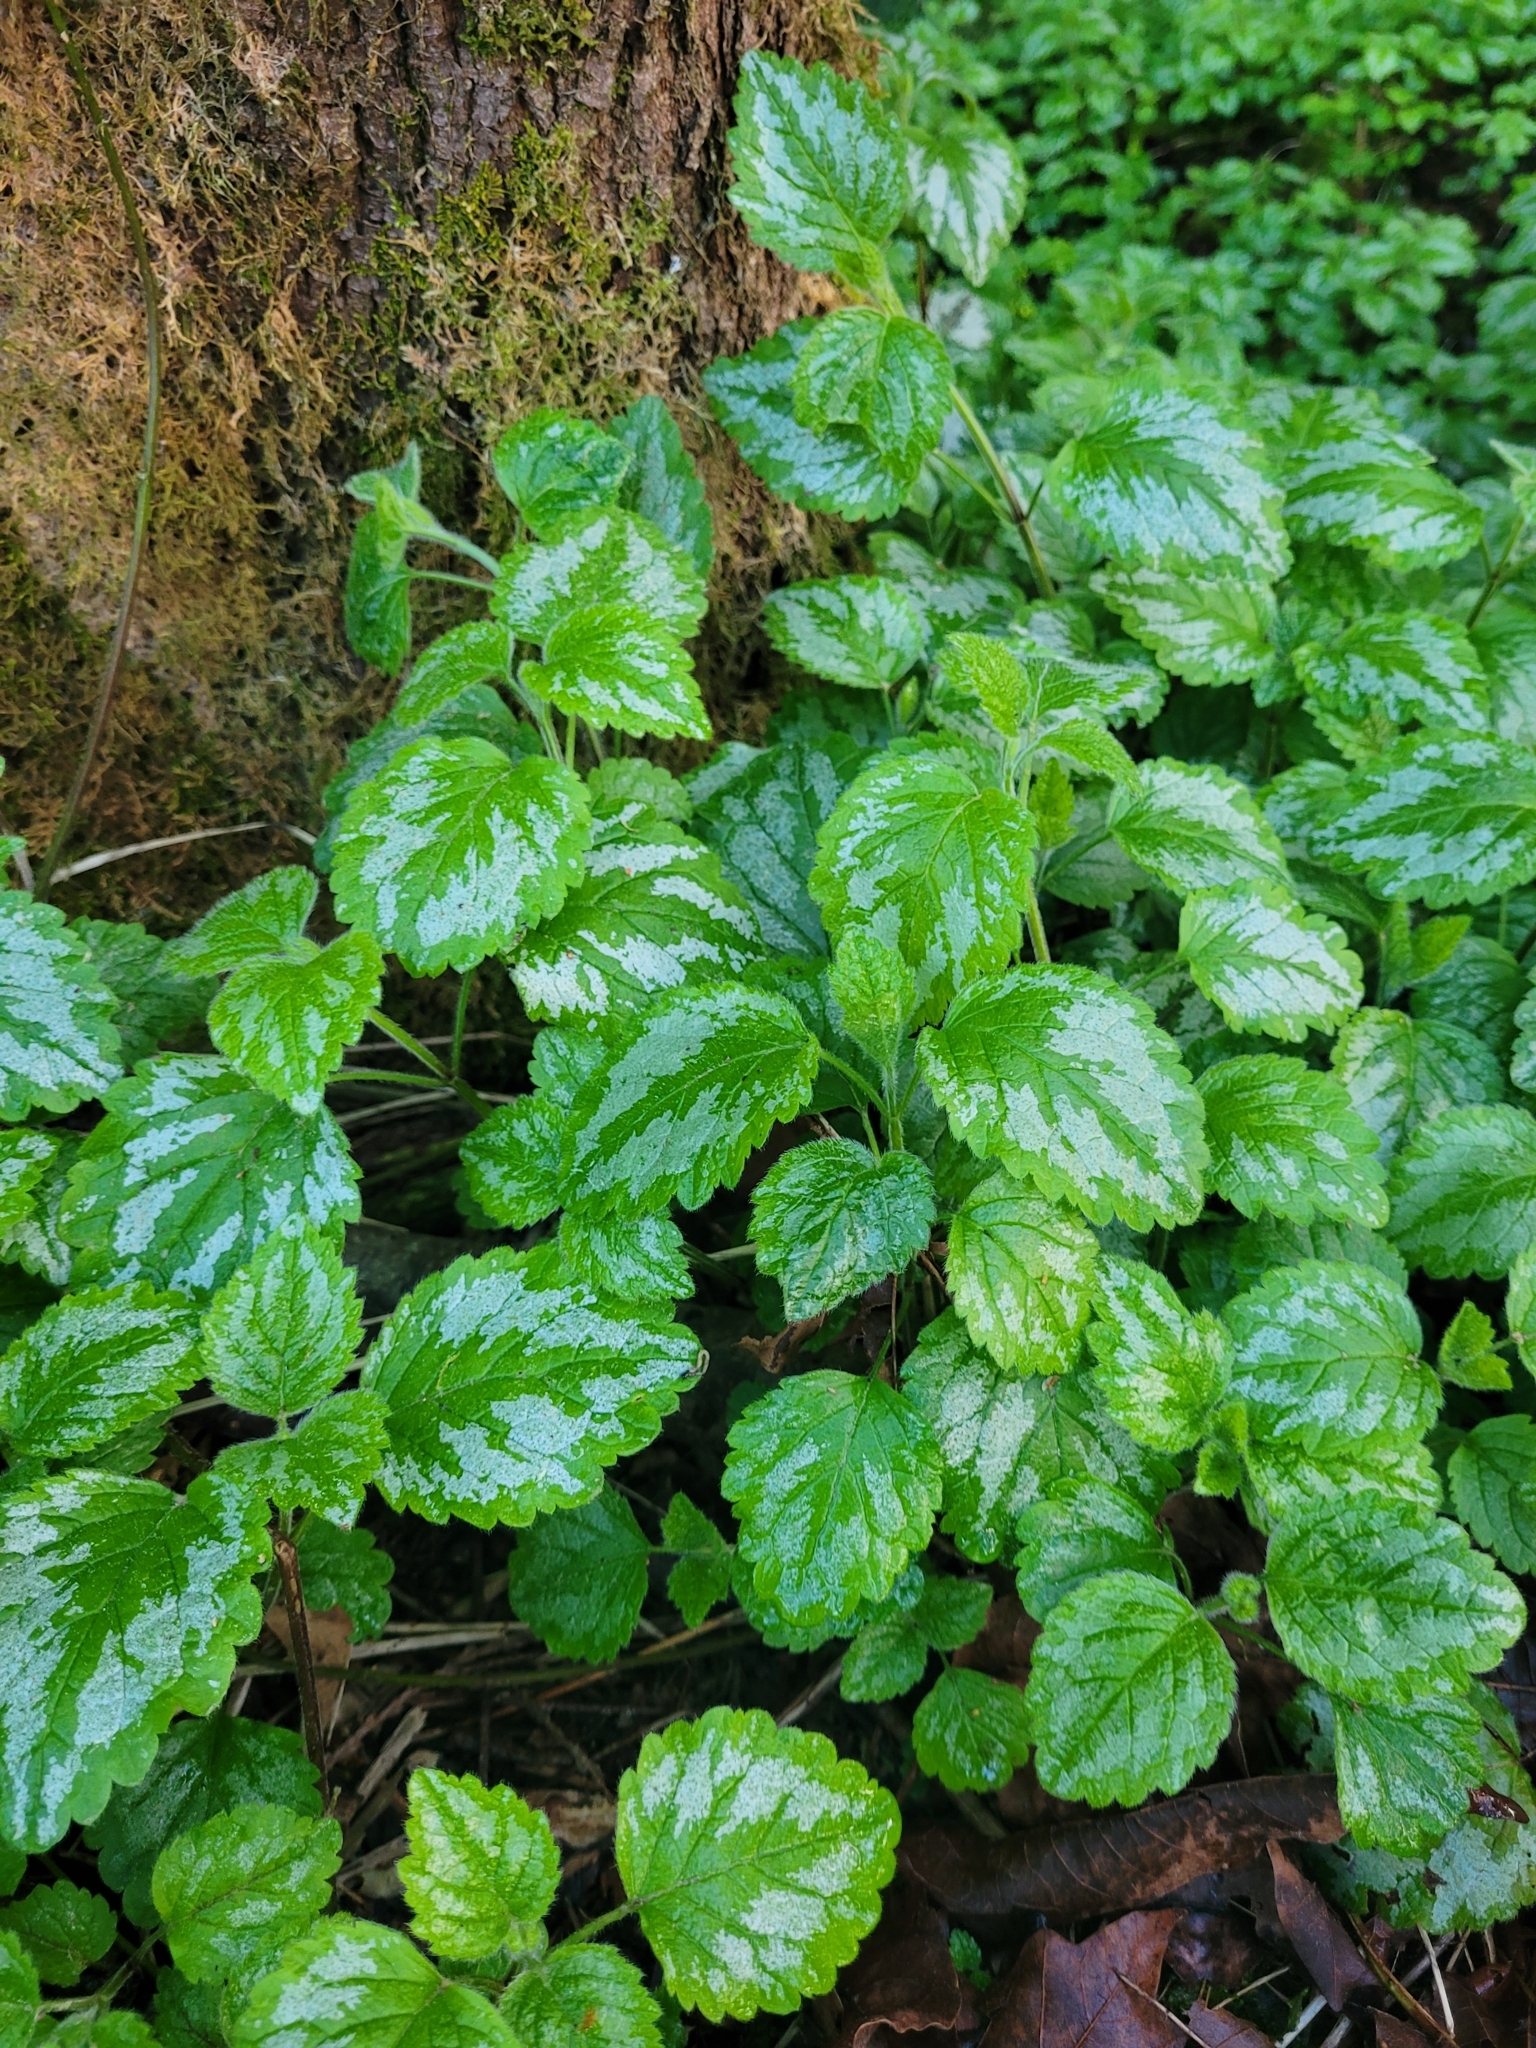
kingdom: Plantae
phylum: Tracheophyta
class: Magnoliopsida
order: Lamiales
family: Lamiaceae
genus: Lamium
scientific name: Lamium galeobdolon
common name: Yellow archangel
